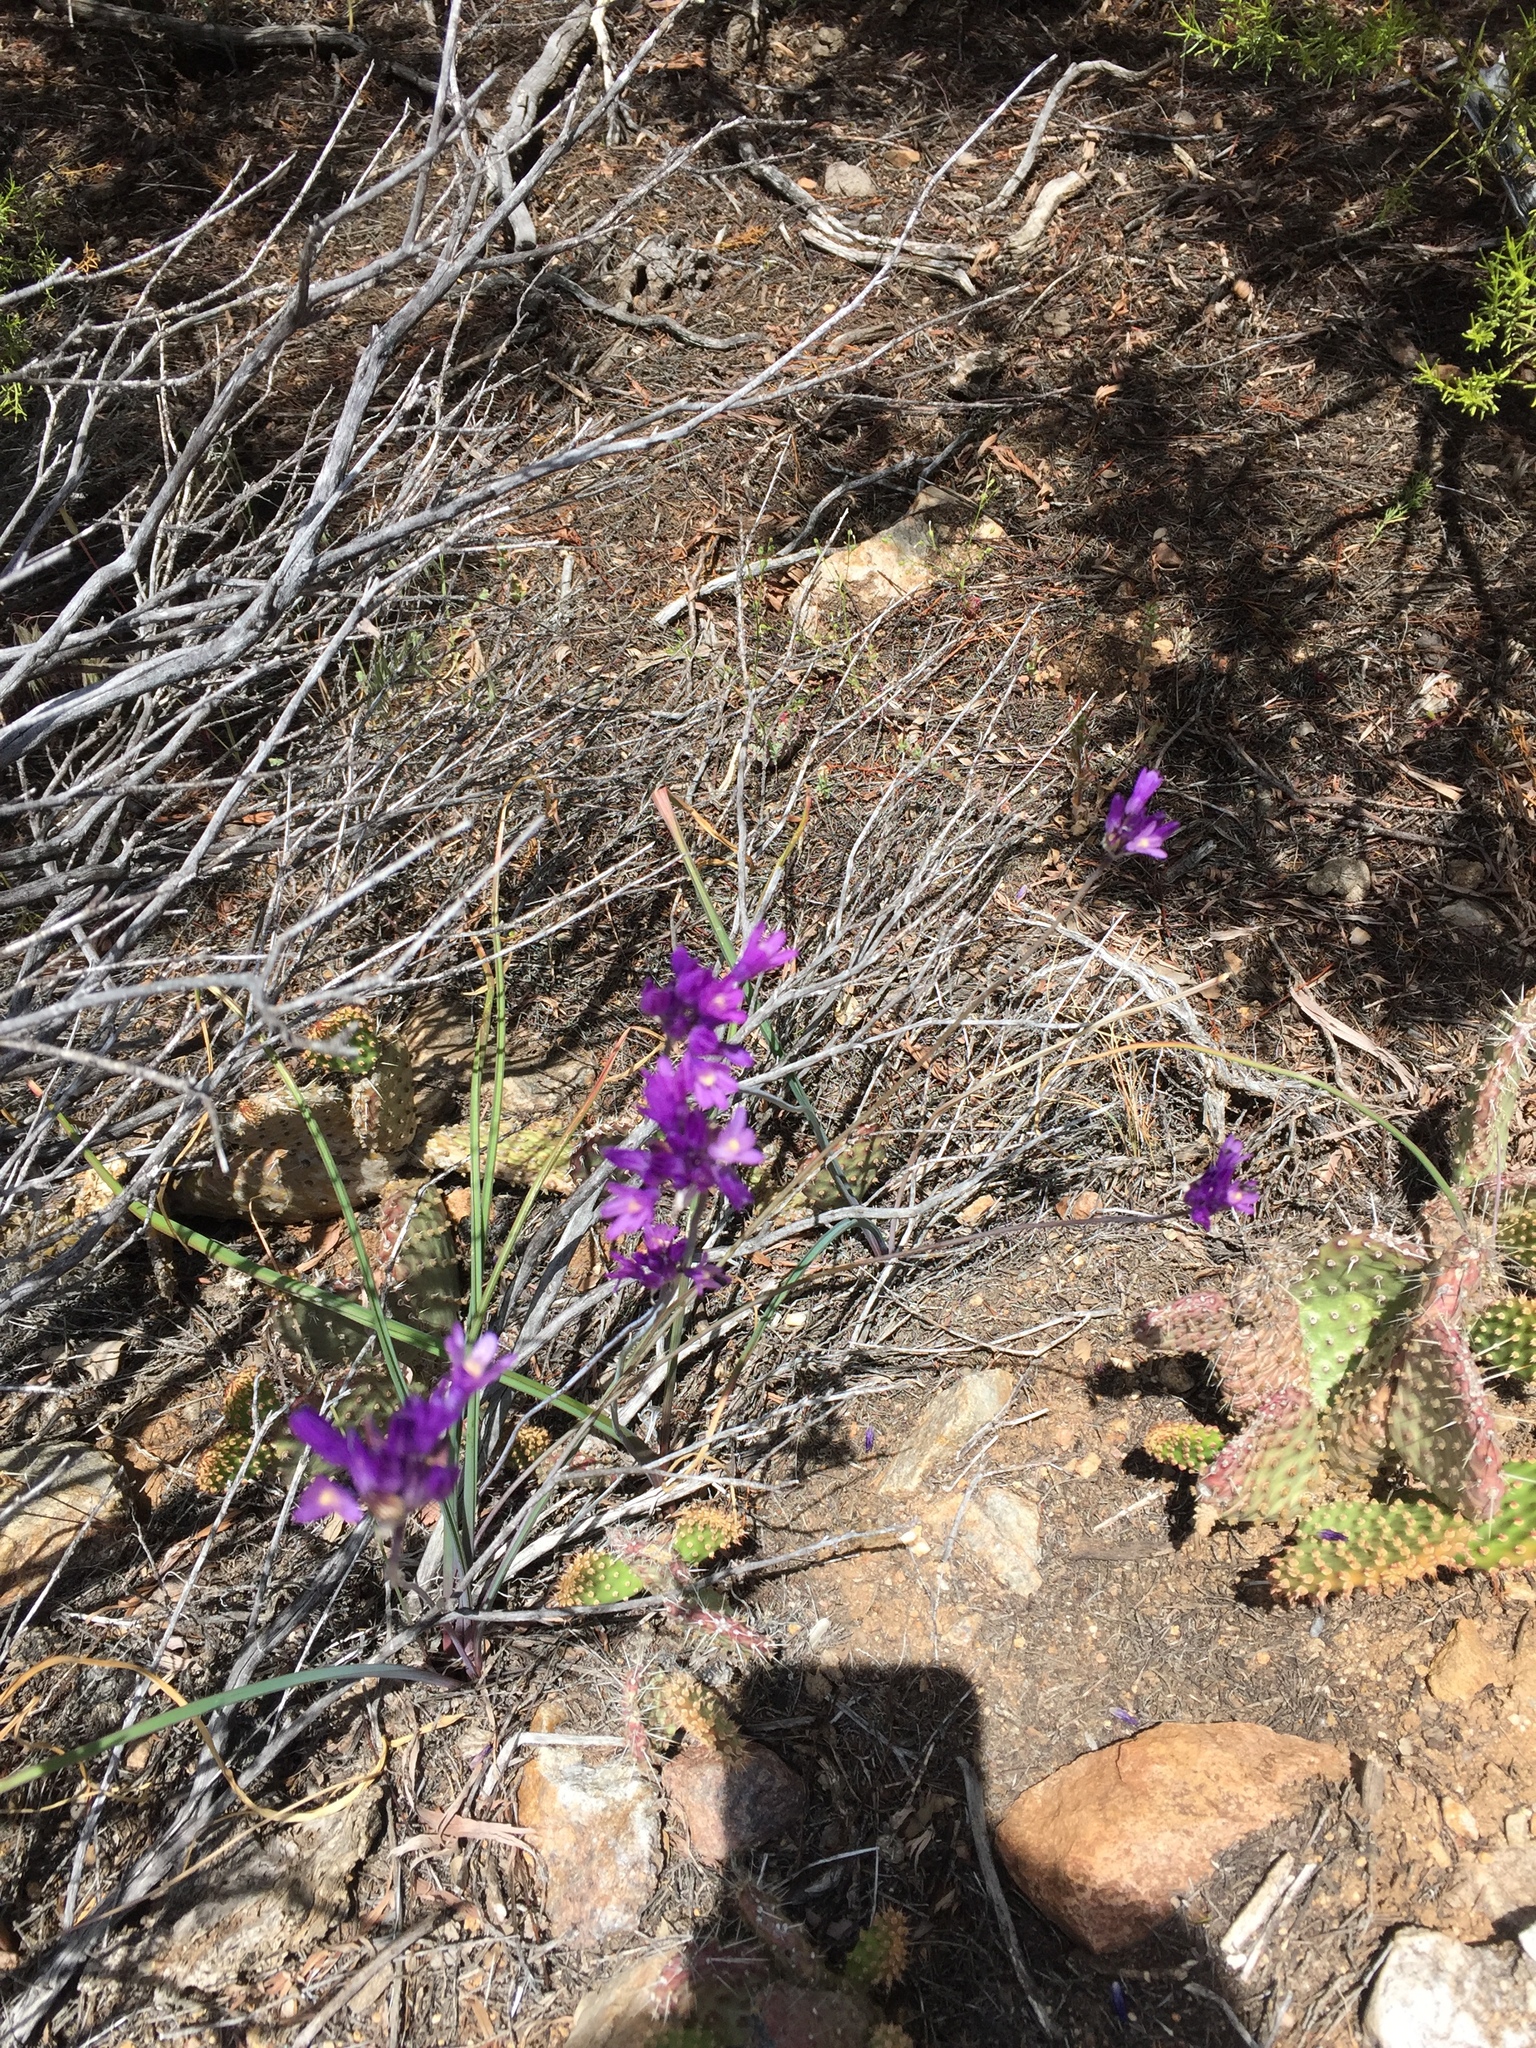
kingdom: Plantae
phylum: Tracheophyta
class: Liliopsida
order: Asparagales
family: Asparagaceae
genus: Dipterostemon
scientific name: Dipterostemon capitatus
